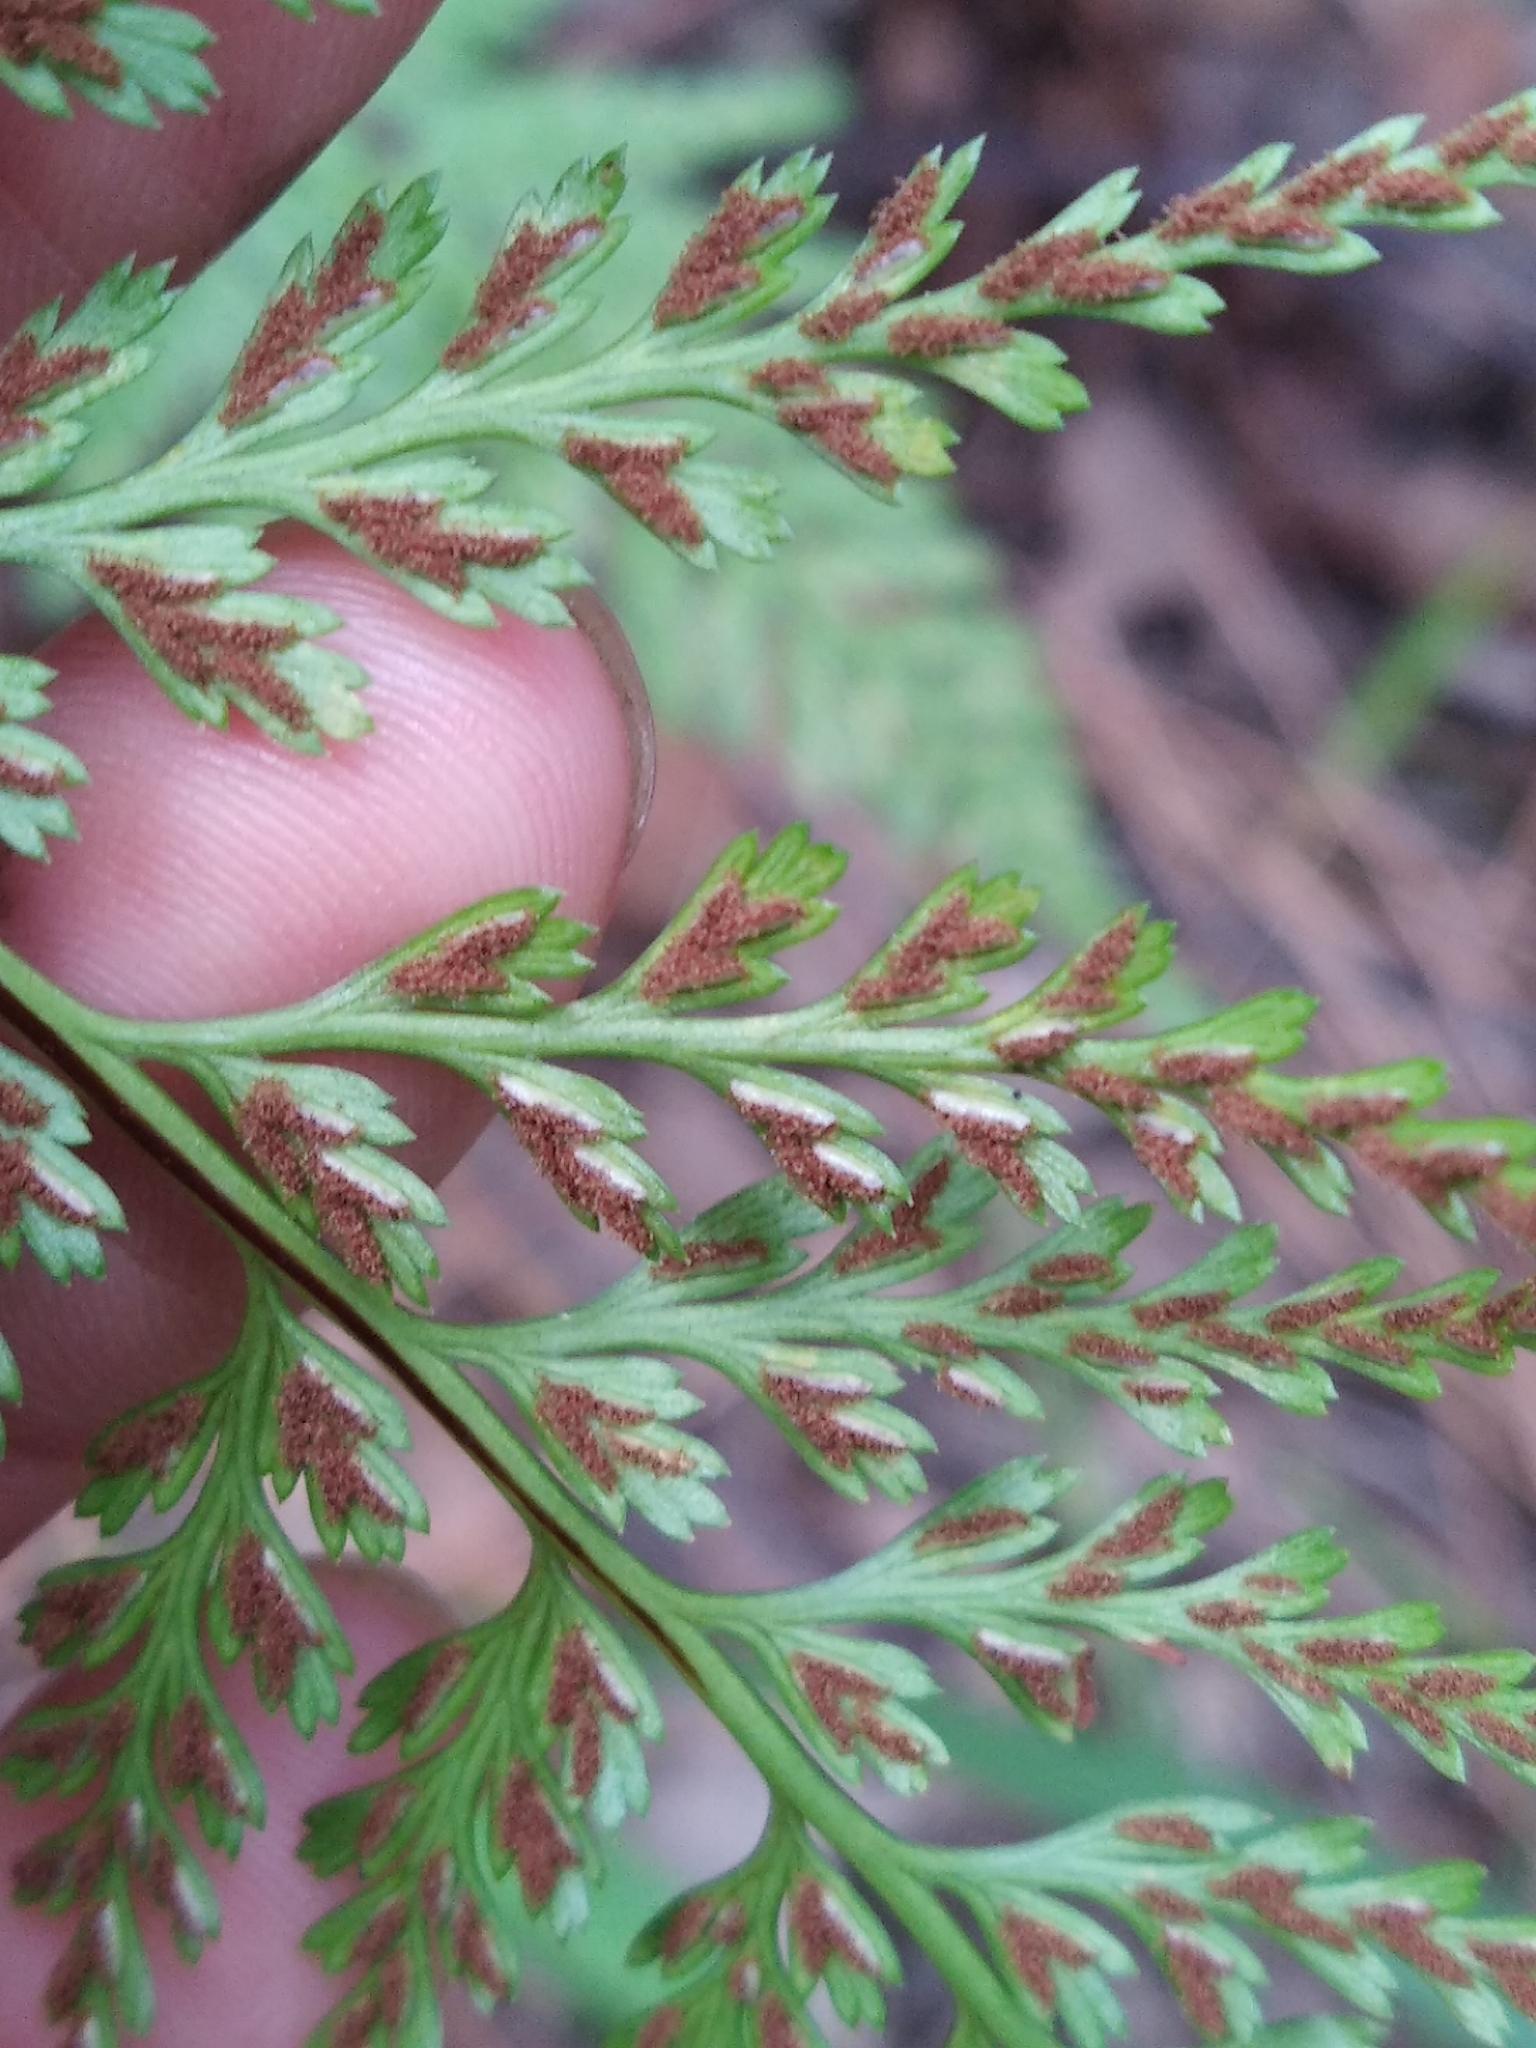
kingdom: Plantae
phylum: Tracheophyta
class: Polypodiopsida
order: Polypodiales
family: Aspleniaceae
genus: Asplenium
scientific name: Asplenium onopteris
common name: Irish spleenwort
